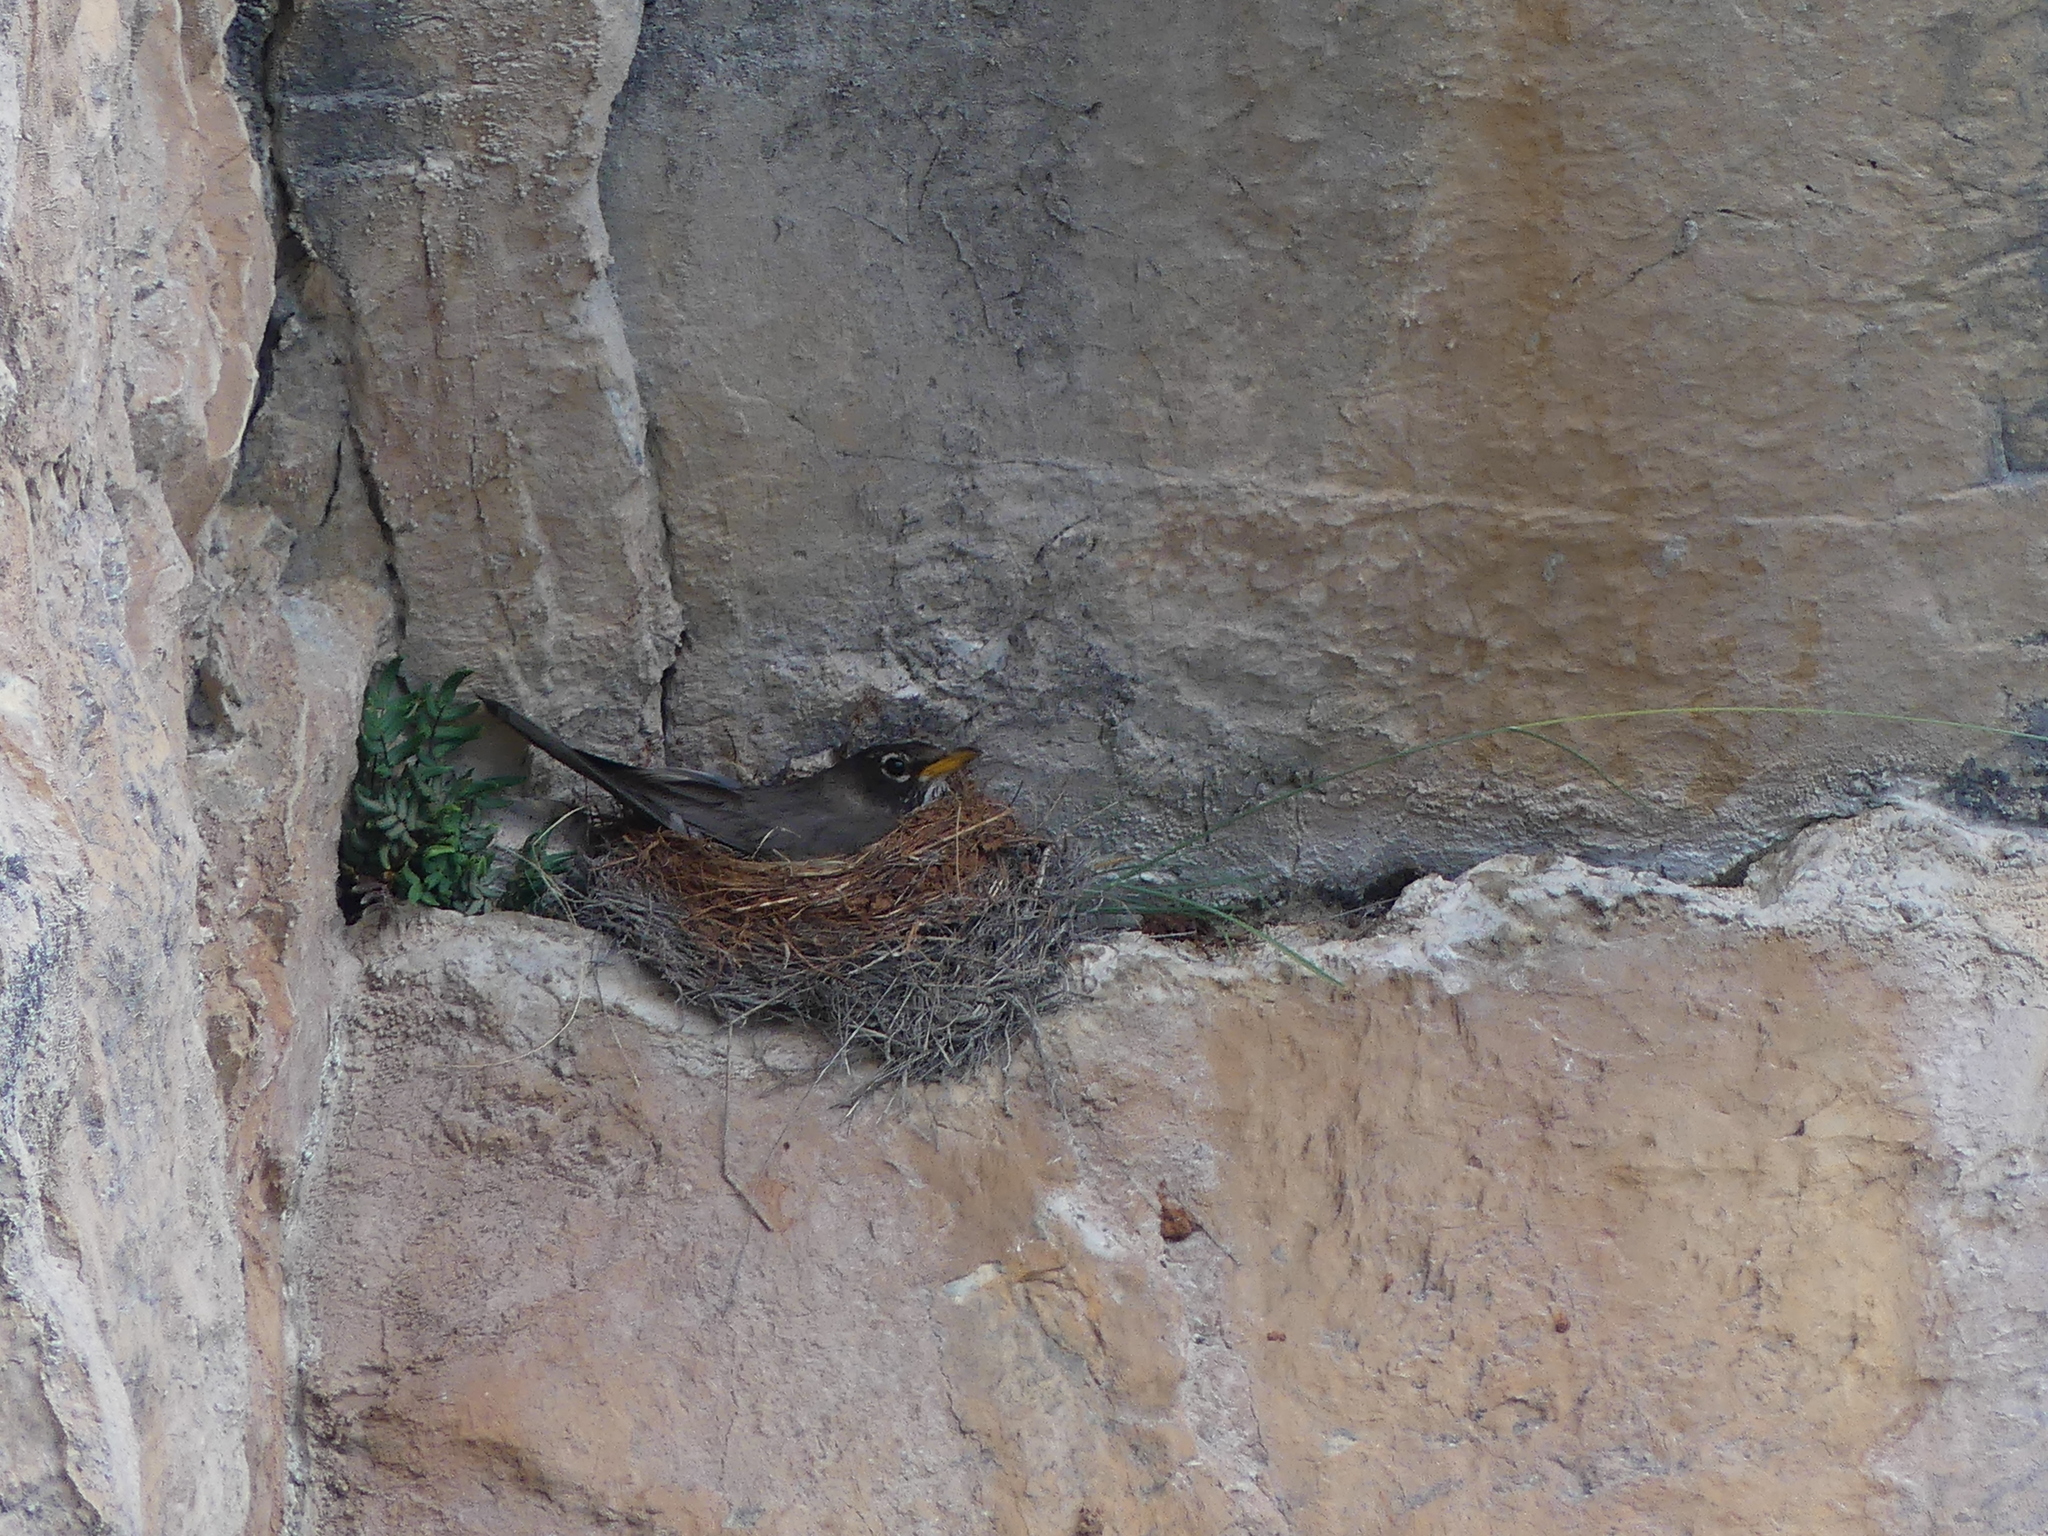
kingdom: Animalia
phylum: Chordata
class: Aves
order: Passeriformes
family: Turdidae
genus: Turdus
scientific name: Turdus migratorius
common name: American robin
